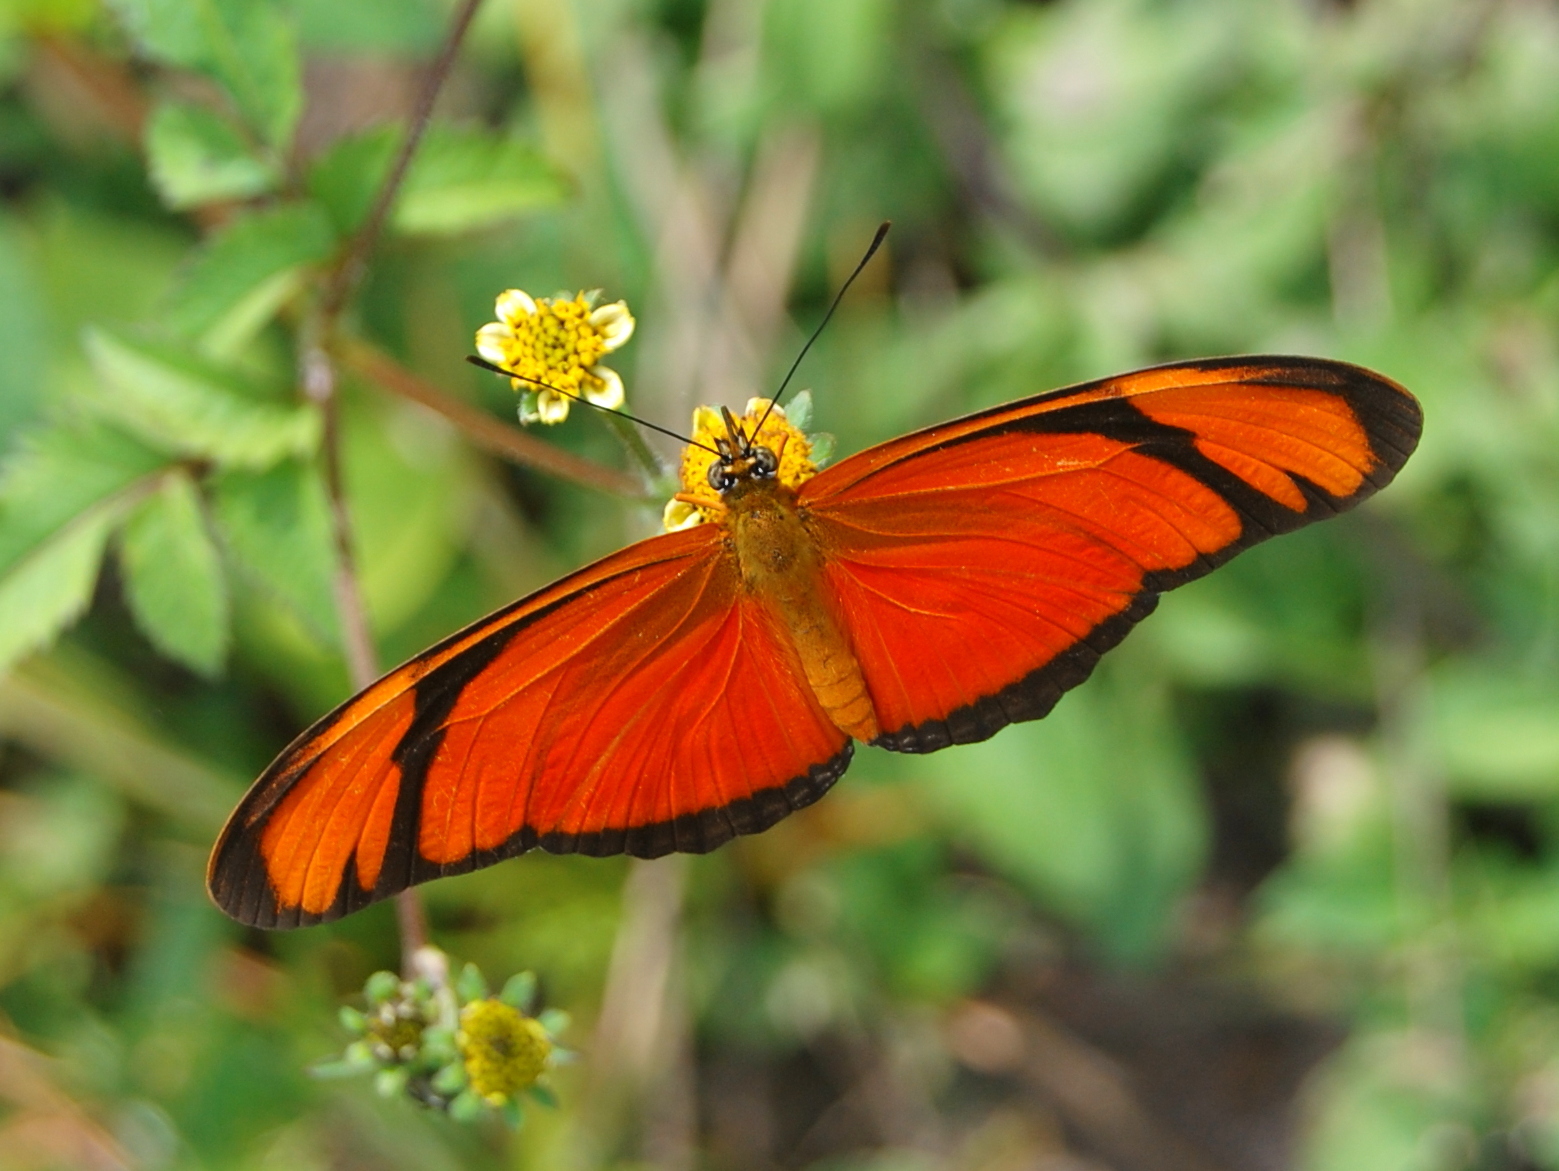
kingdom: Animalia
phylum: Arthropoda
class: Insecta
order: Lepidoptera
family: Nymphalidae
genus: Dryas
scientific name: Dryas iulia
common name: Flambeau
